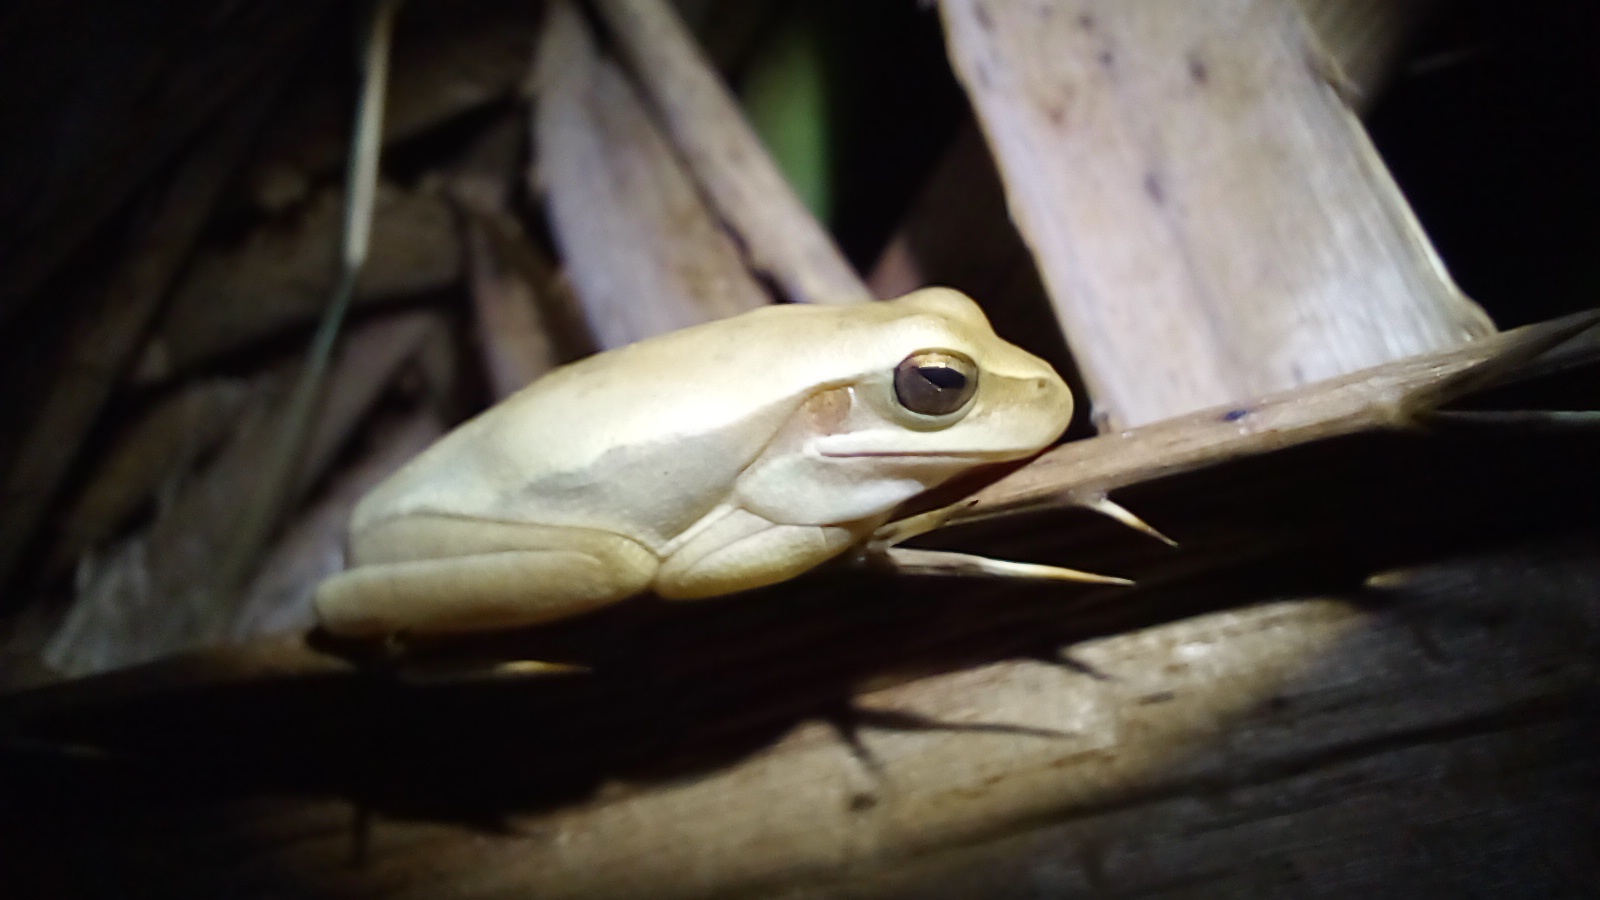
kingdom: Animalia
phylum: Chordata
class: Amphibia
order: Anura
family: Hylidae
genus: Boana
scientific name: Boana pulchella
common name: Montevideo treefrog
